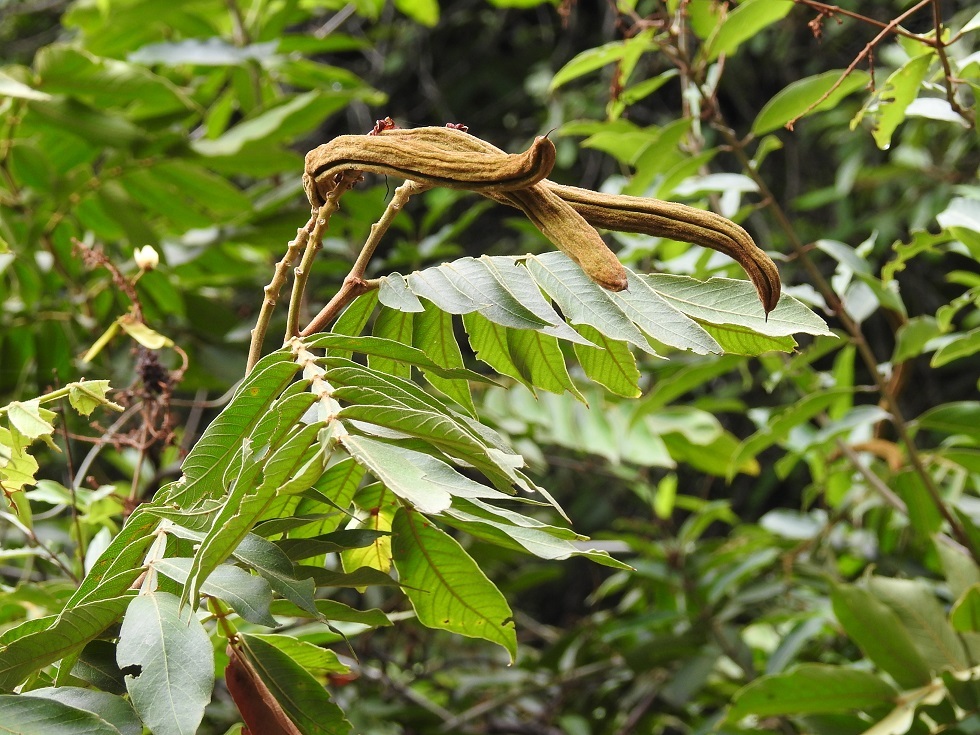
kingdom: Plantae
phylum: Tracheophyta
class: Magnoliopsida
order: Fabales
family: Fabaceae
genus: Inga
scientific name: Inga oerstediana
